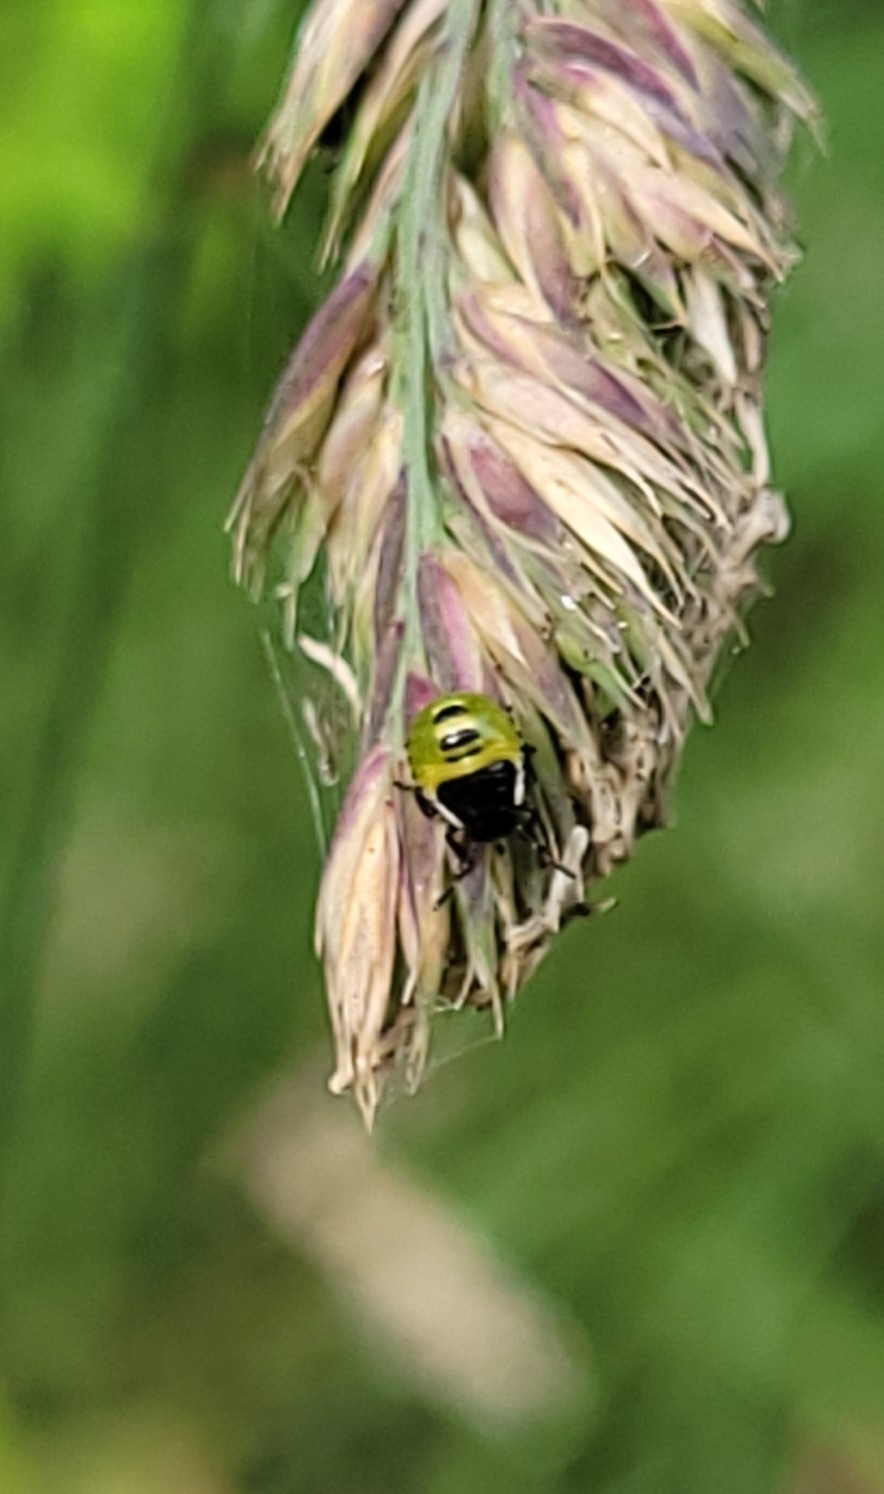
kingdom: Animalia
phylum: Arthropoda
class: Insecta
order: Hemiptera
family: Pentatomidae
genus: Palomena
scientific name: Palomena prasina
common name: Green shieldbug
